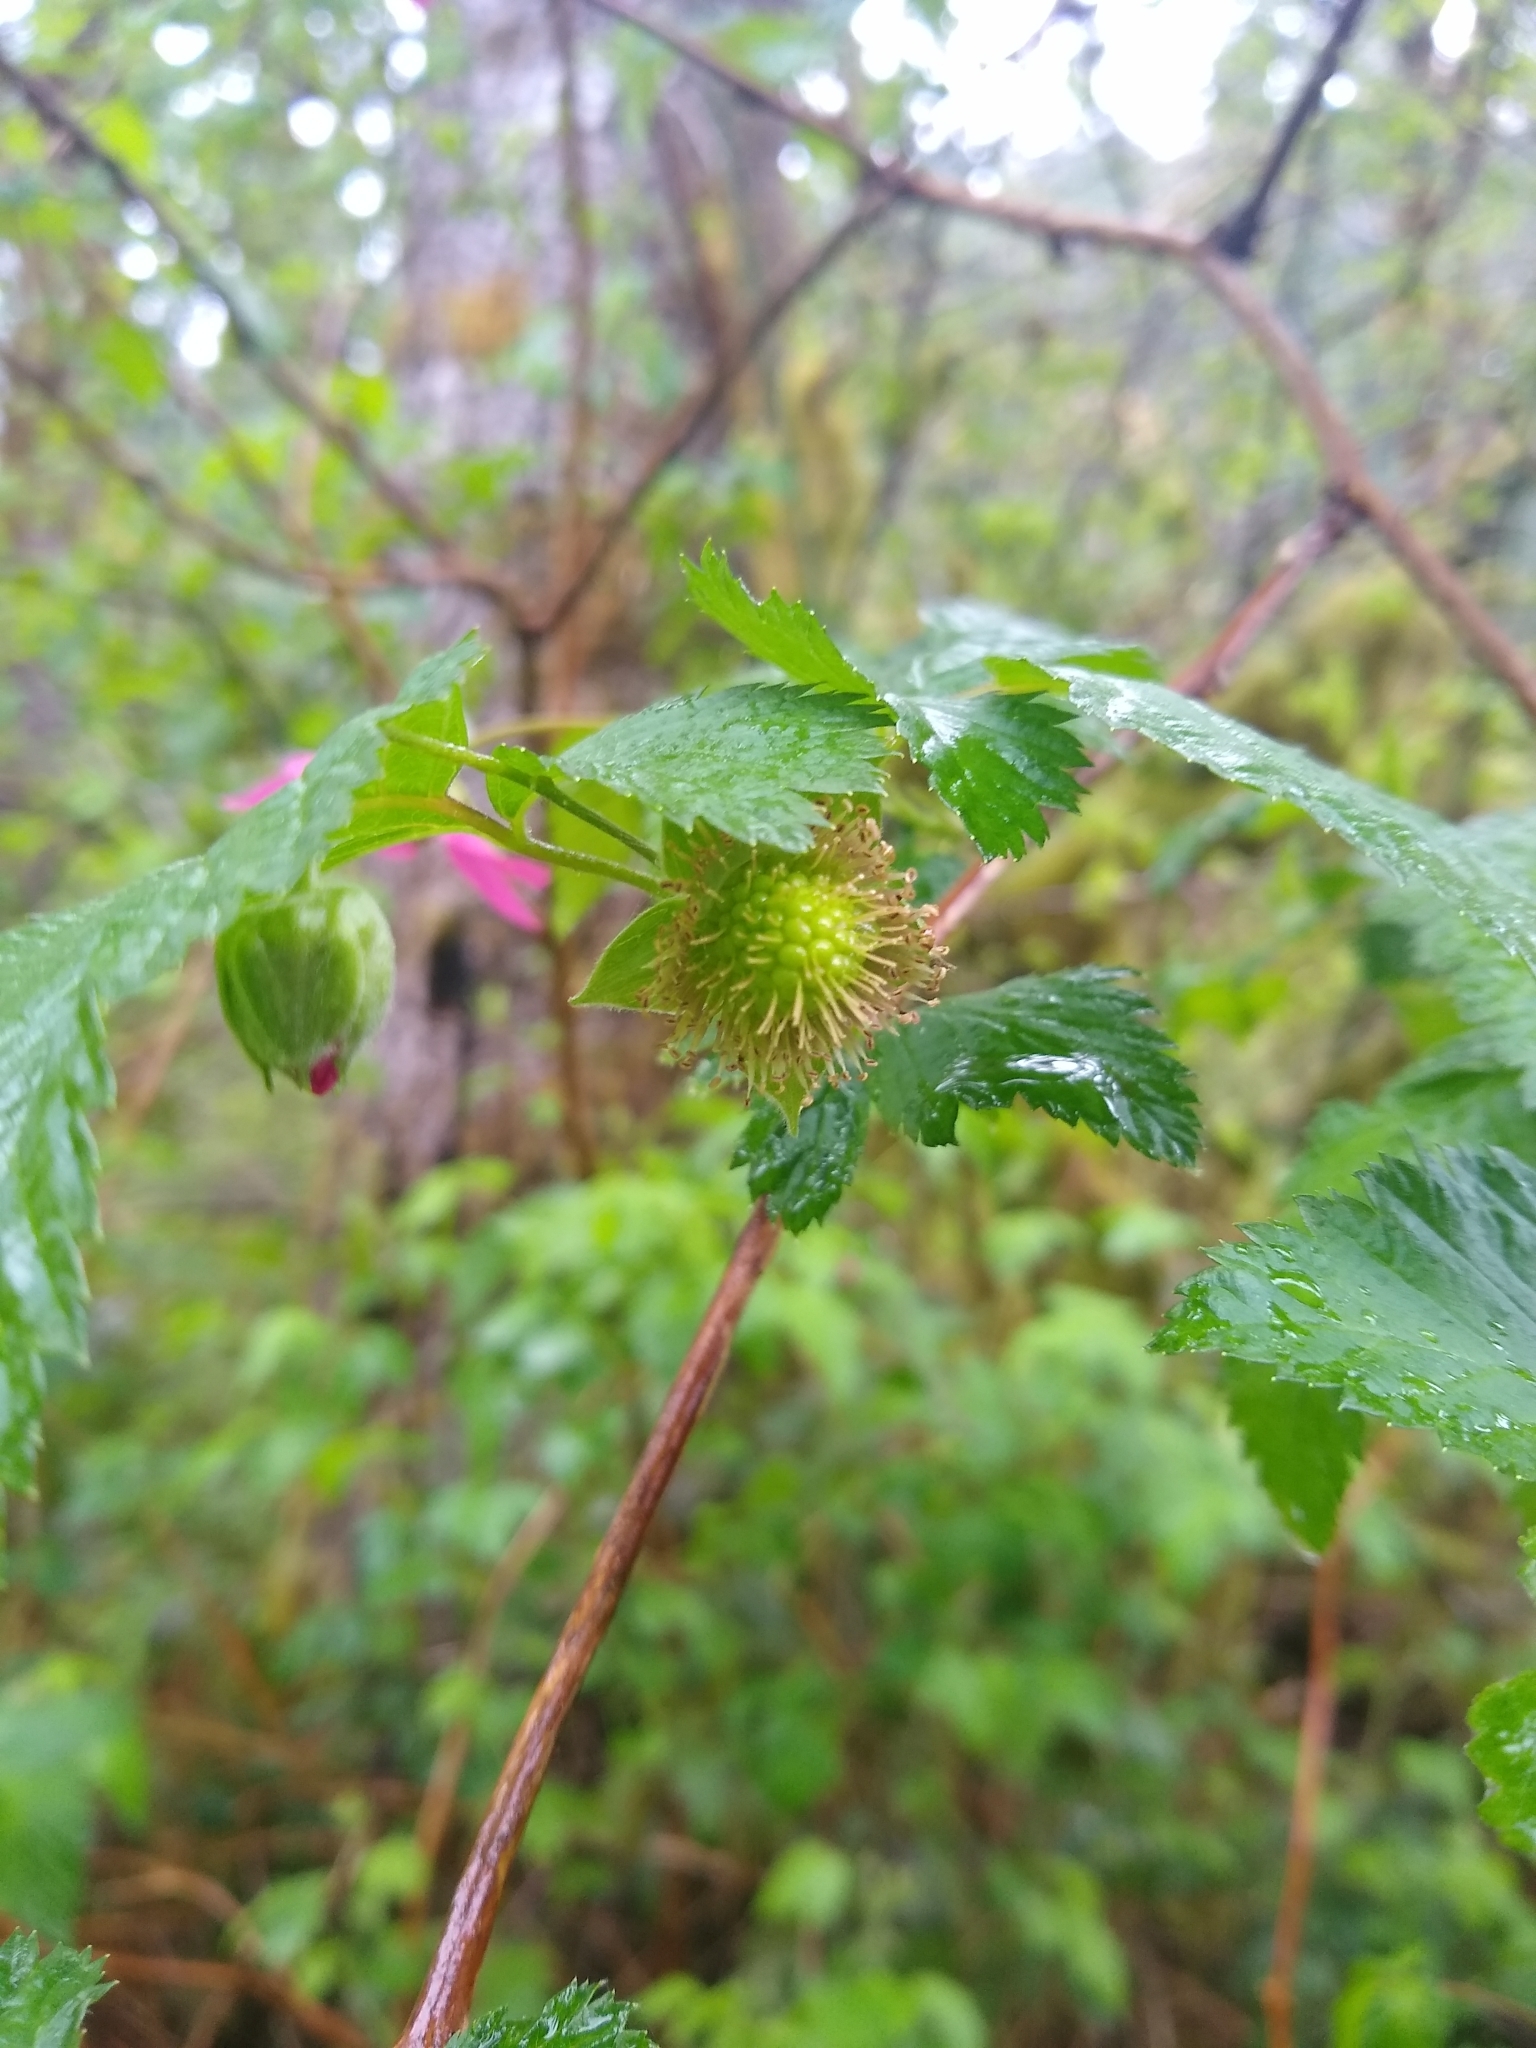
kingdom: Plantae
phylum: Tracheophyta
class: Magnoliopsida
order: Rosales
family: Rosaceae
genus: Rubus
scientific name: Rubus spectabilis
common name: Salmonberry
